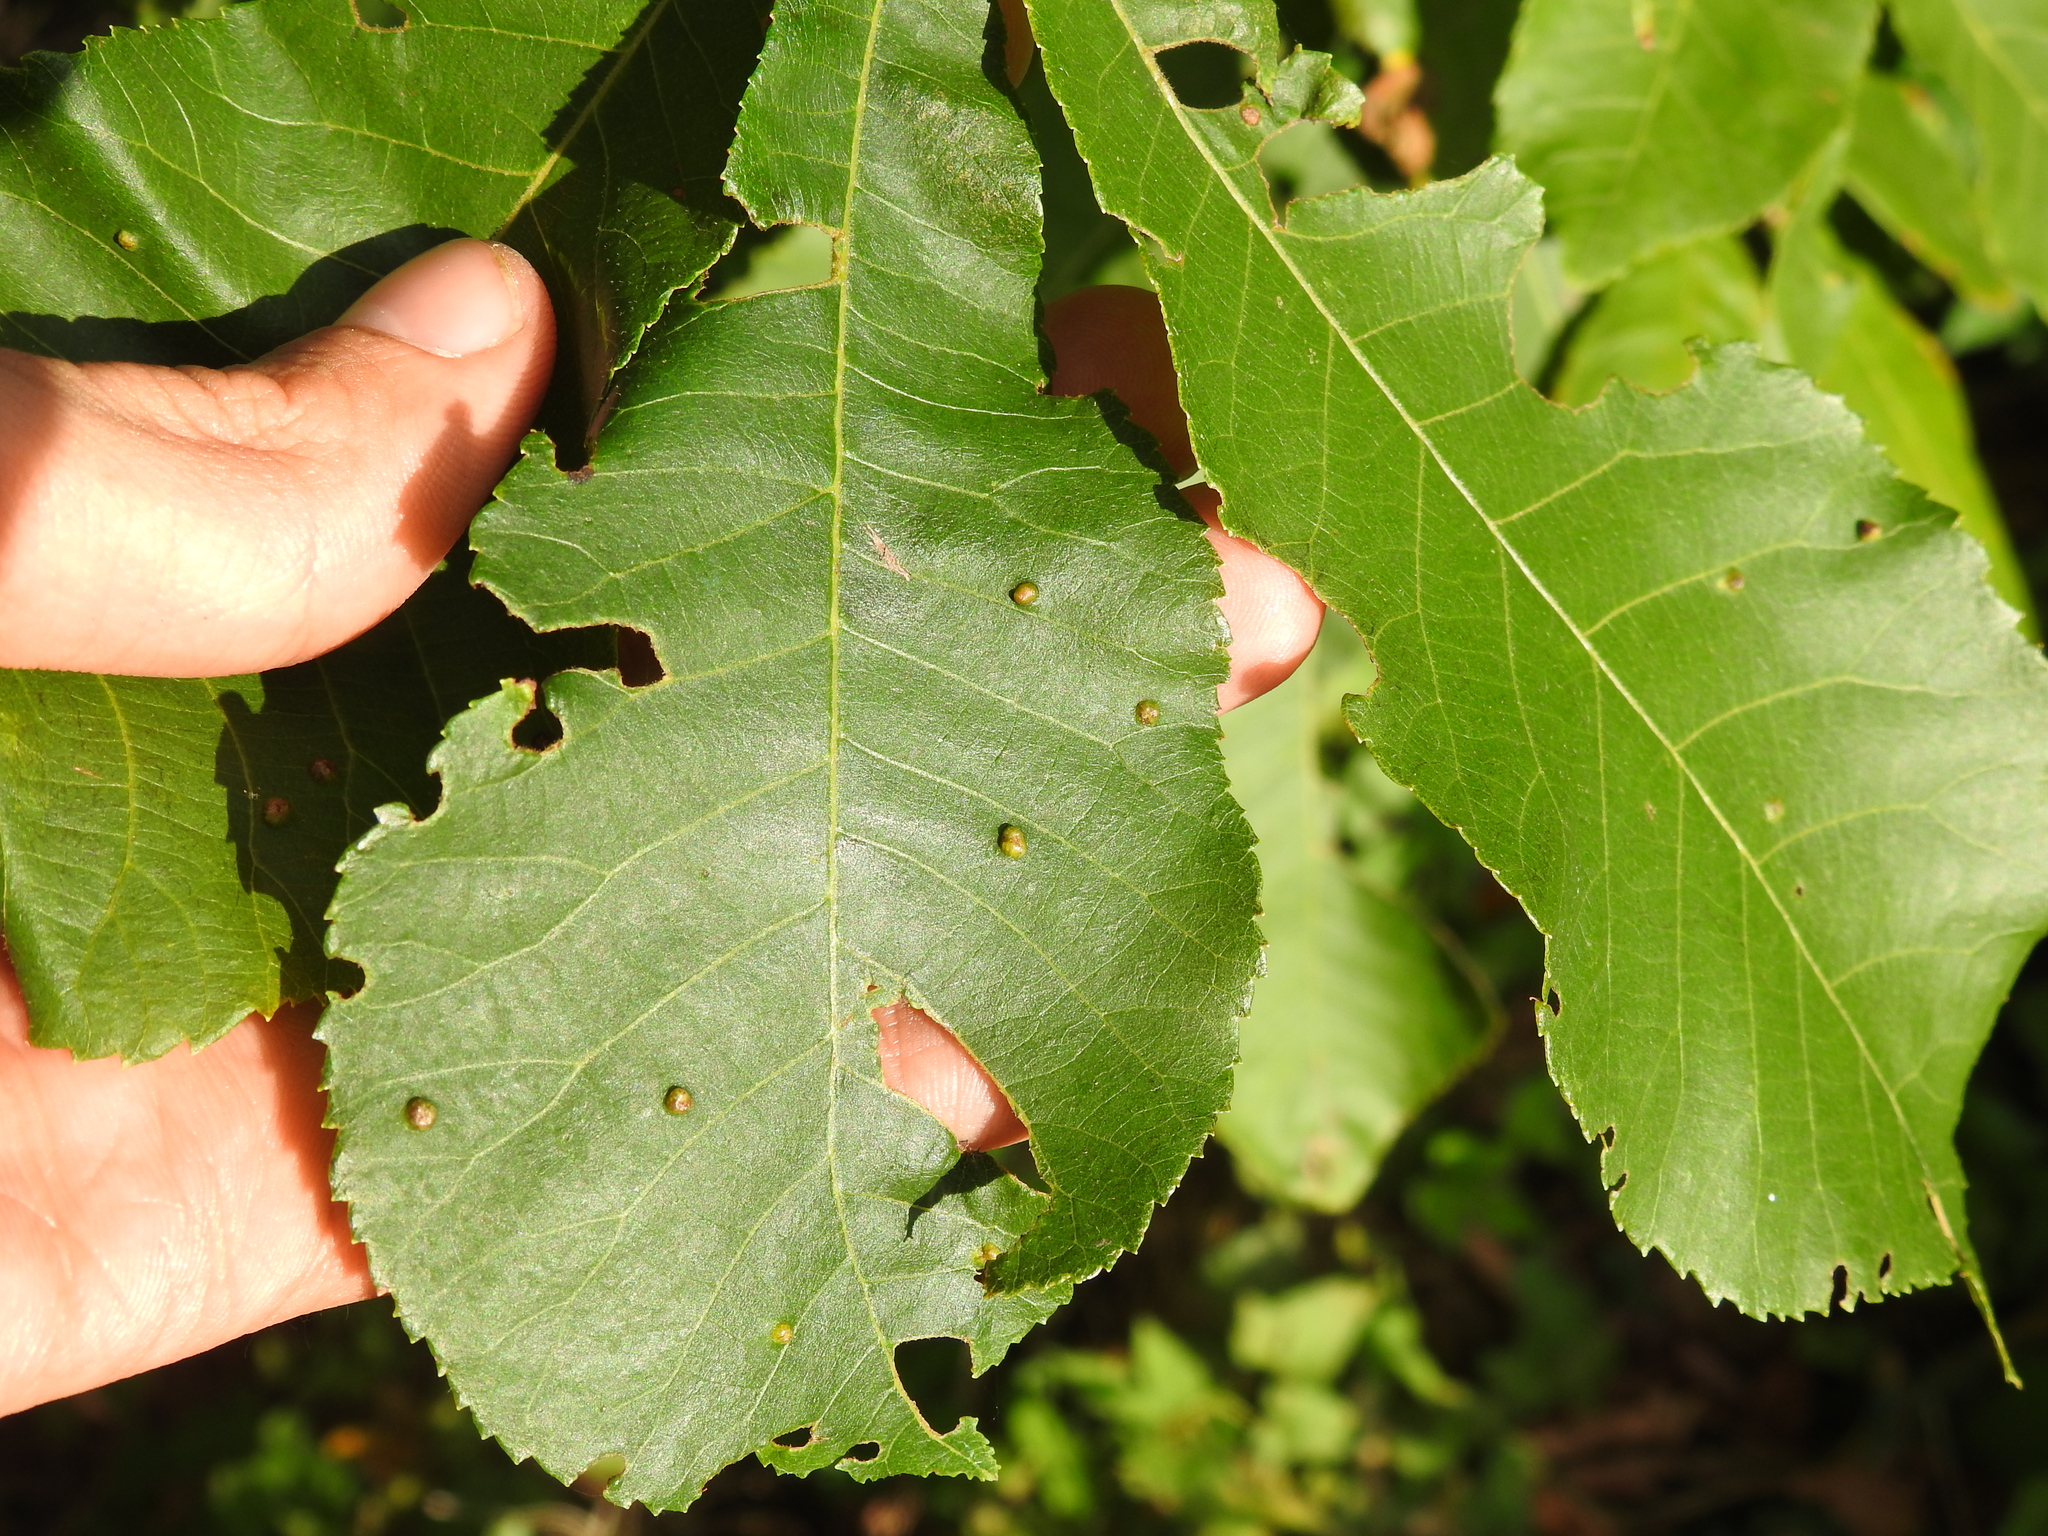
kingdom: Animalia
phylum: Arthropoda
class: Insecta
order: Hemiptera
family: Phylloxeridae
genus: Phylloxera
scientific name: Phylloxera caryae-semen
